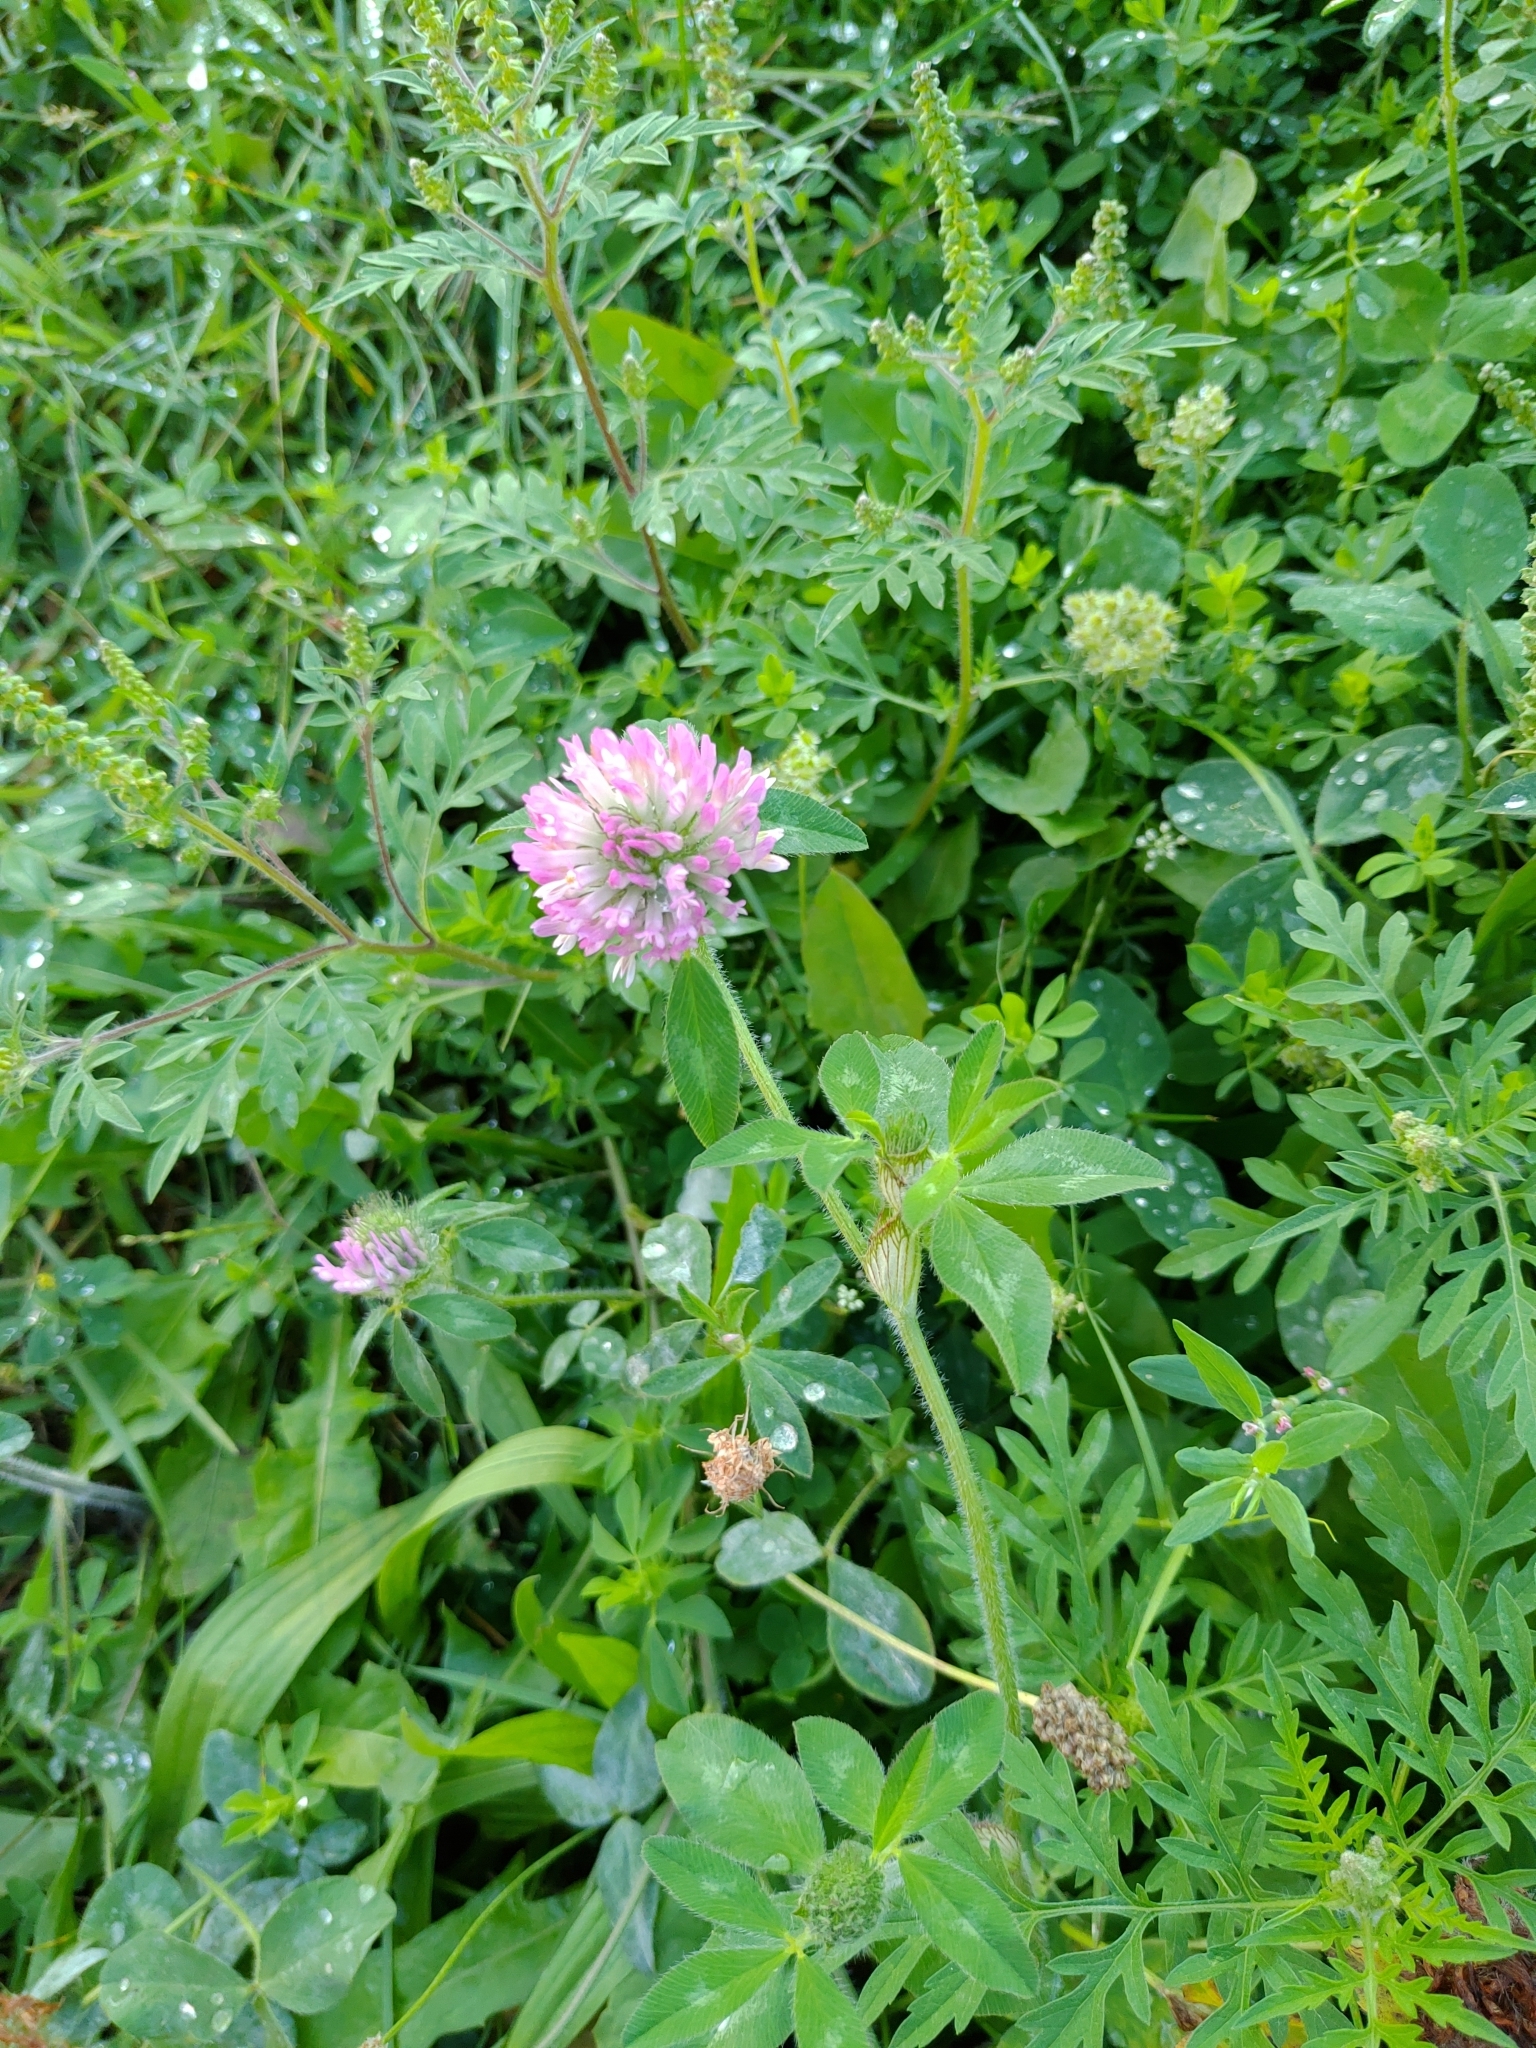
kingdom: Plantae
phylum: Tracheophyta
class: Magnoliopsida
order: Fabales
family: Fabaceae
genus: Trifolium
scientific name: Trifolium pratense
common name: Red clover
